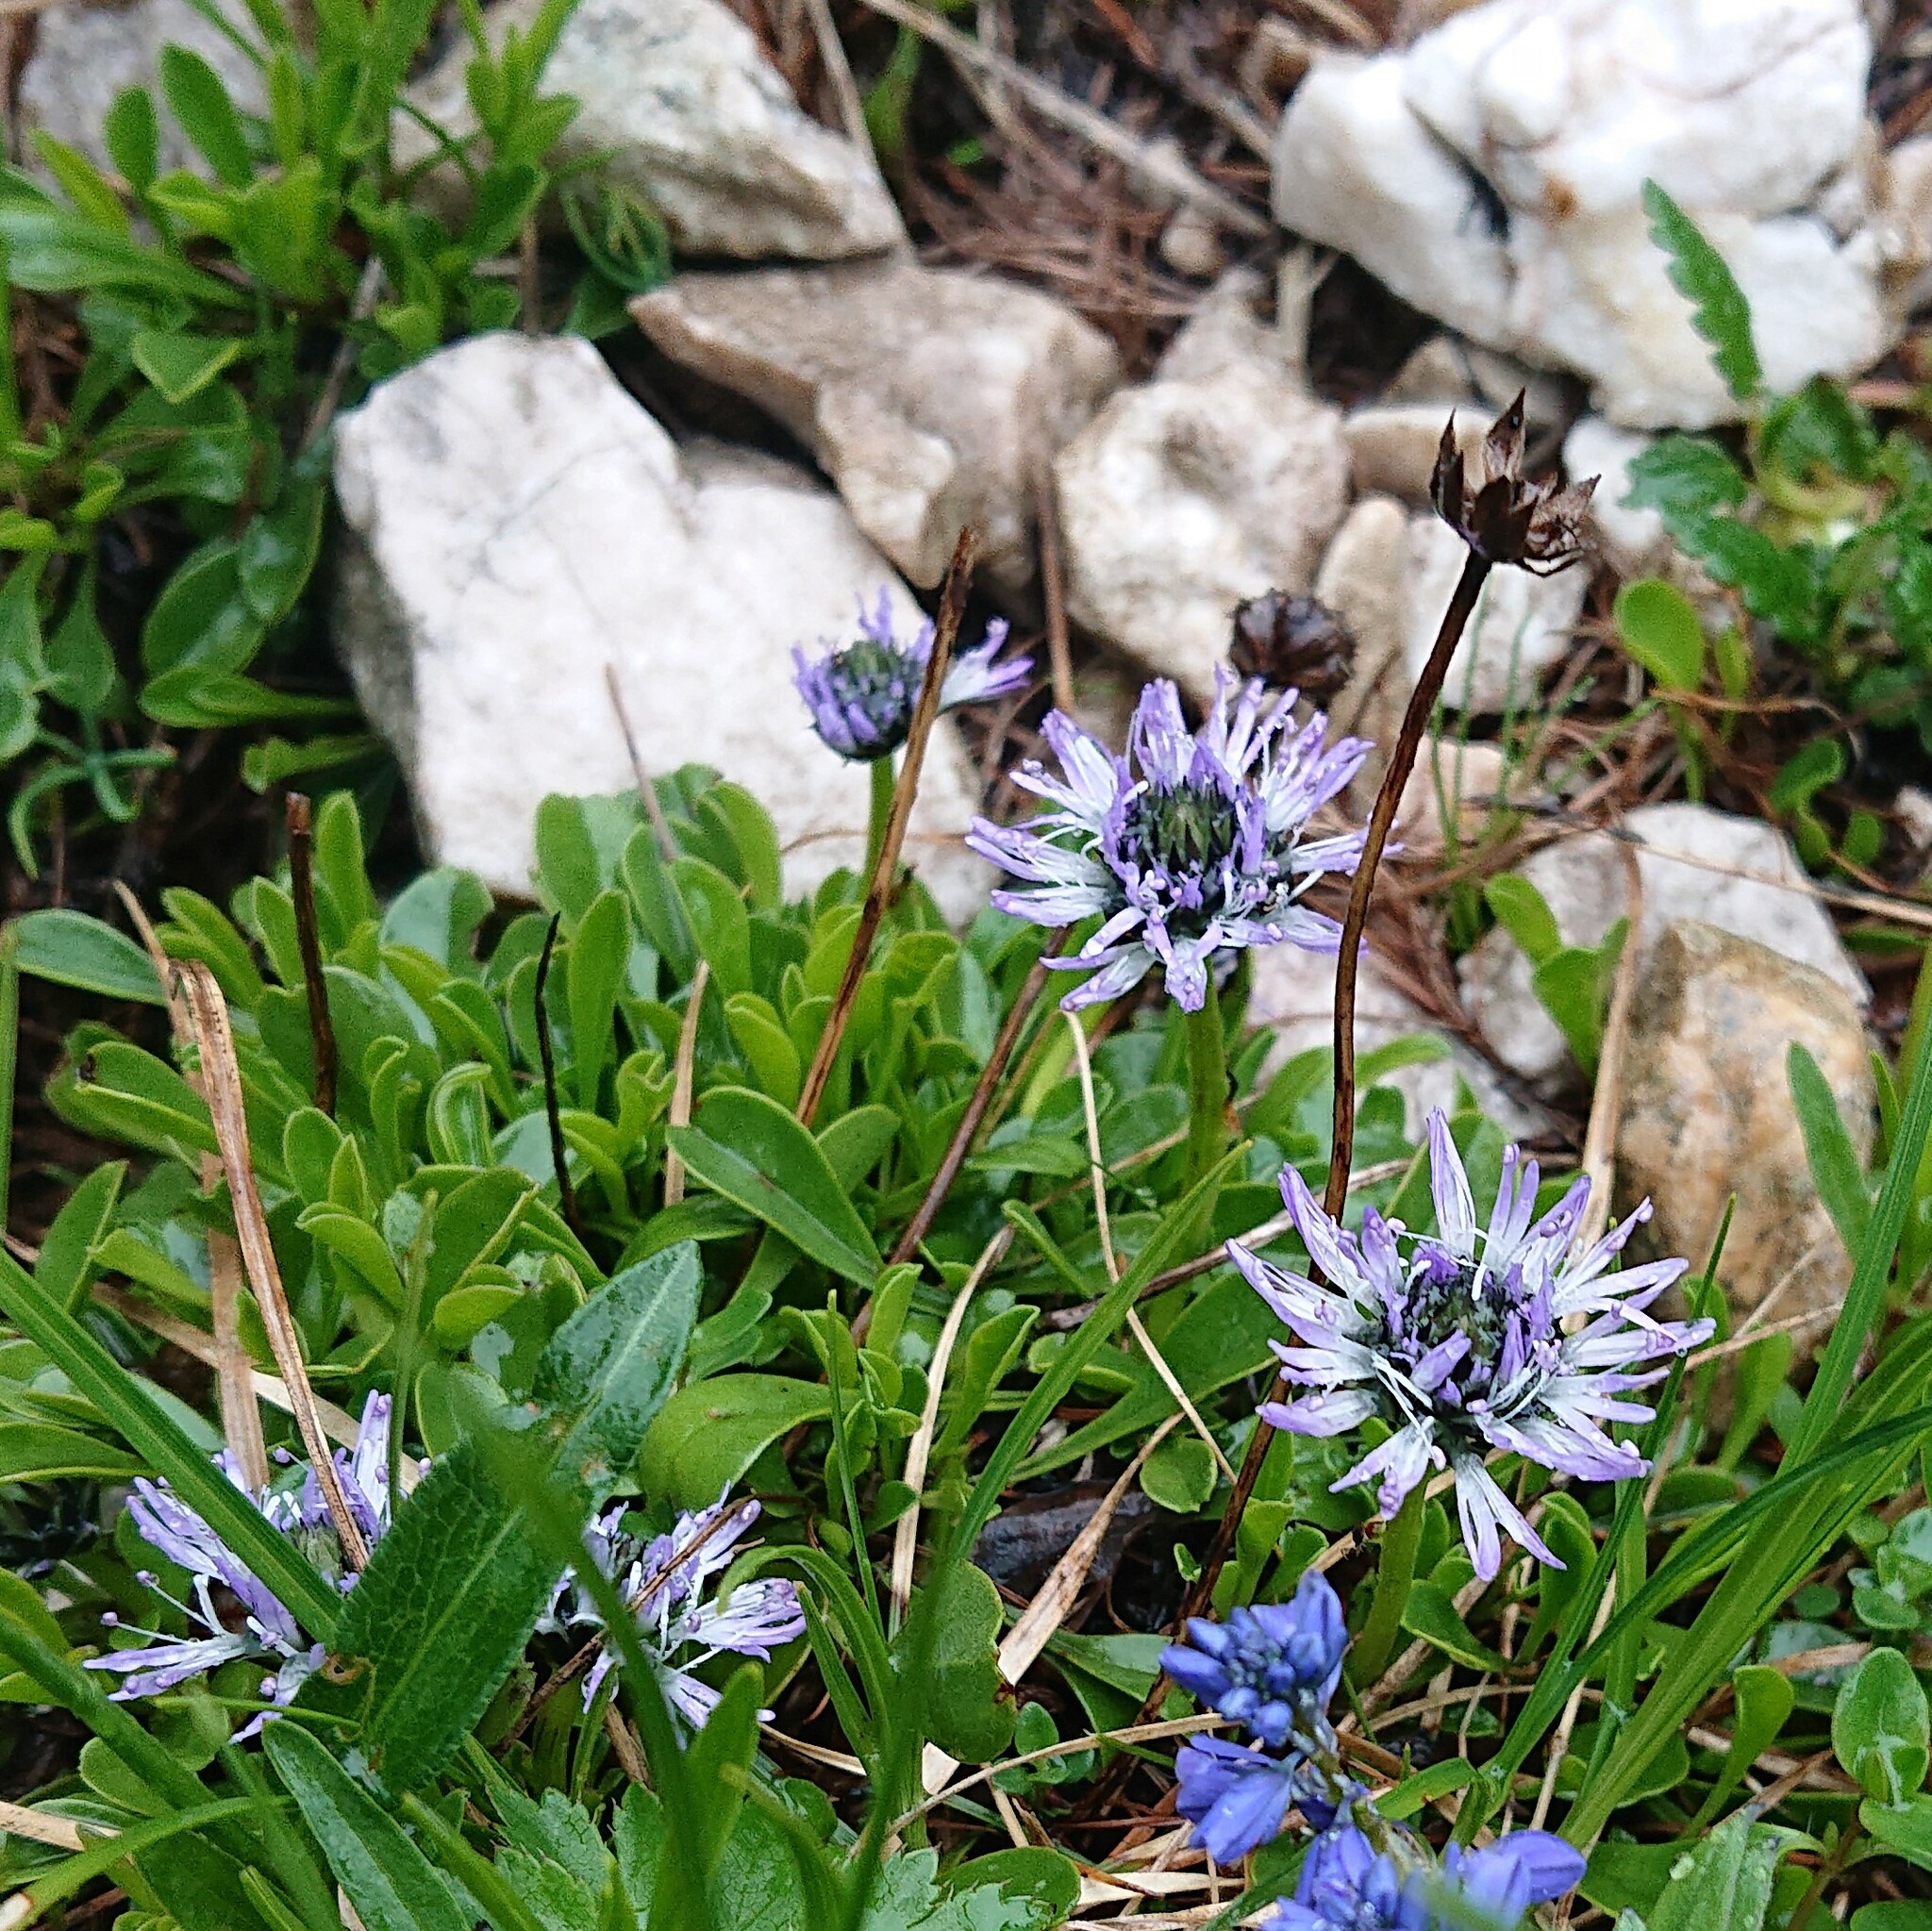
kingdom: Plantae
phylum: Tracheophyta
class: Magnoliopsida
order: Lamiales
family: Plantaginaceae
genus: Globularia
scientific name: Globularia cordifolia
